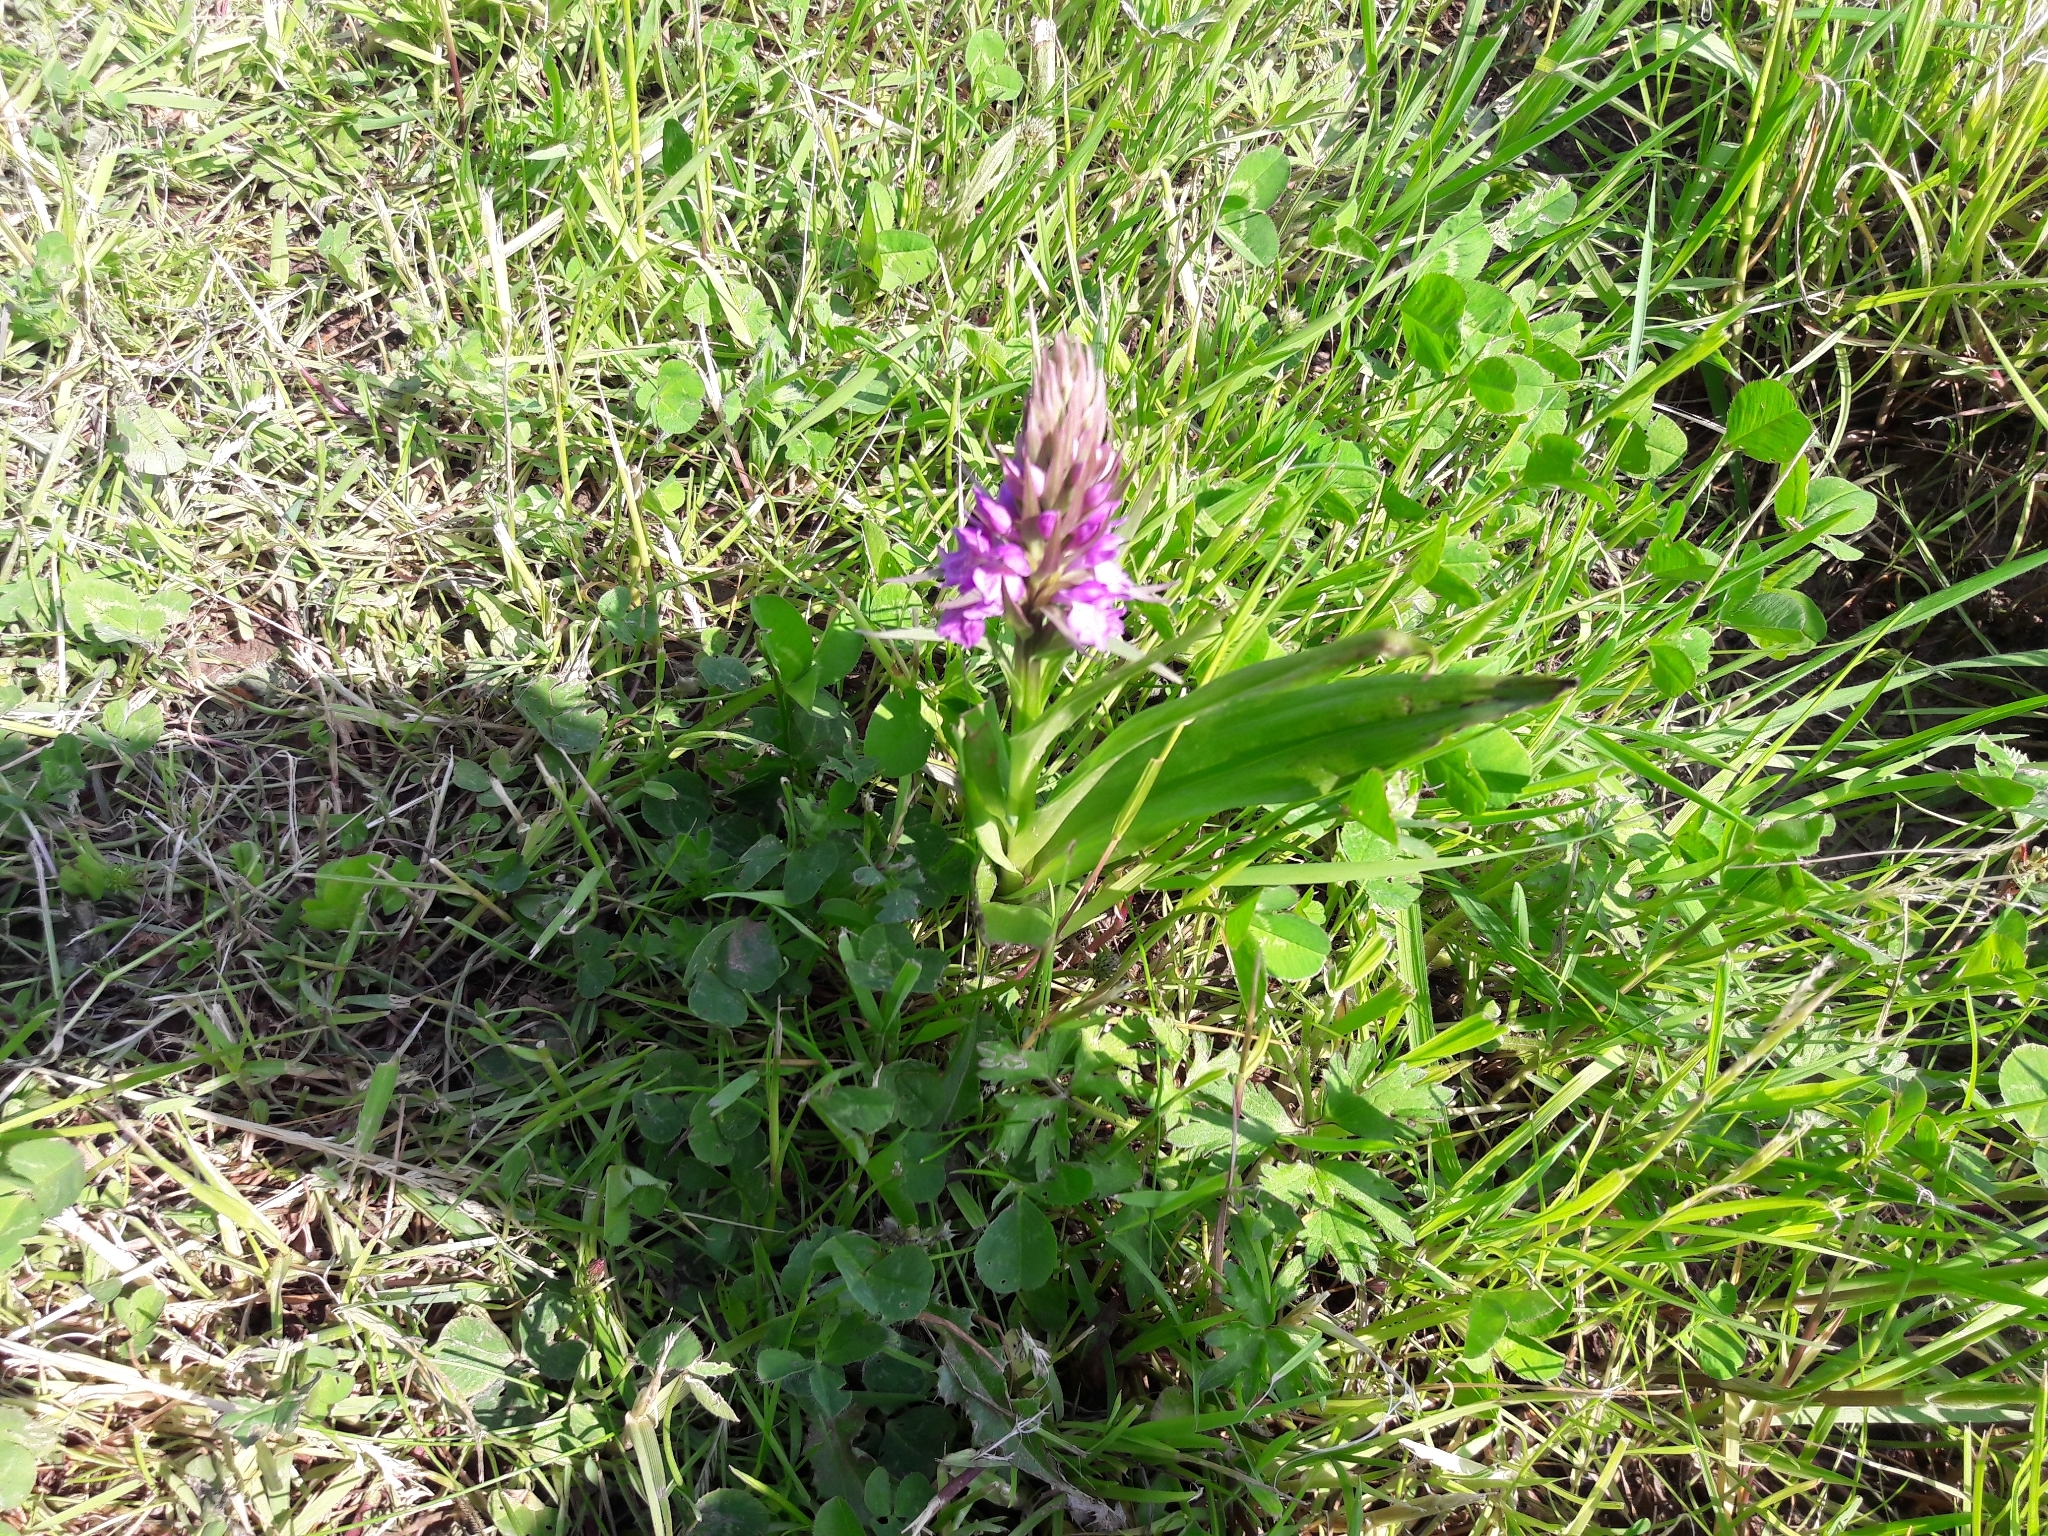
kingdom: Plantae
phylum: Tracheophyta
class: Liliopsida
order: Asparagales
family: Orchidaceae
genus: Dactylorhiza
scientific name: Dactylorhiza majalis
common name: Marsh orchid
